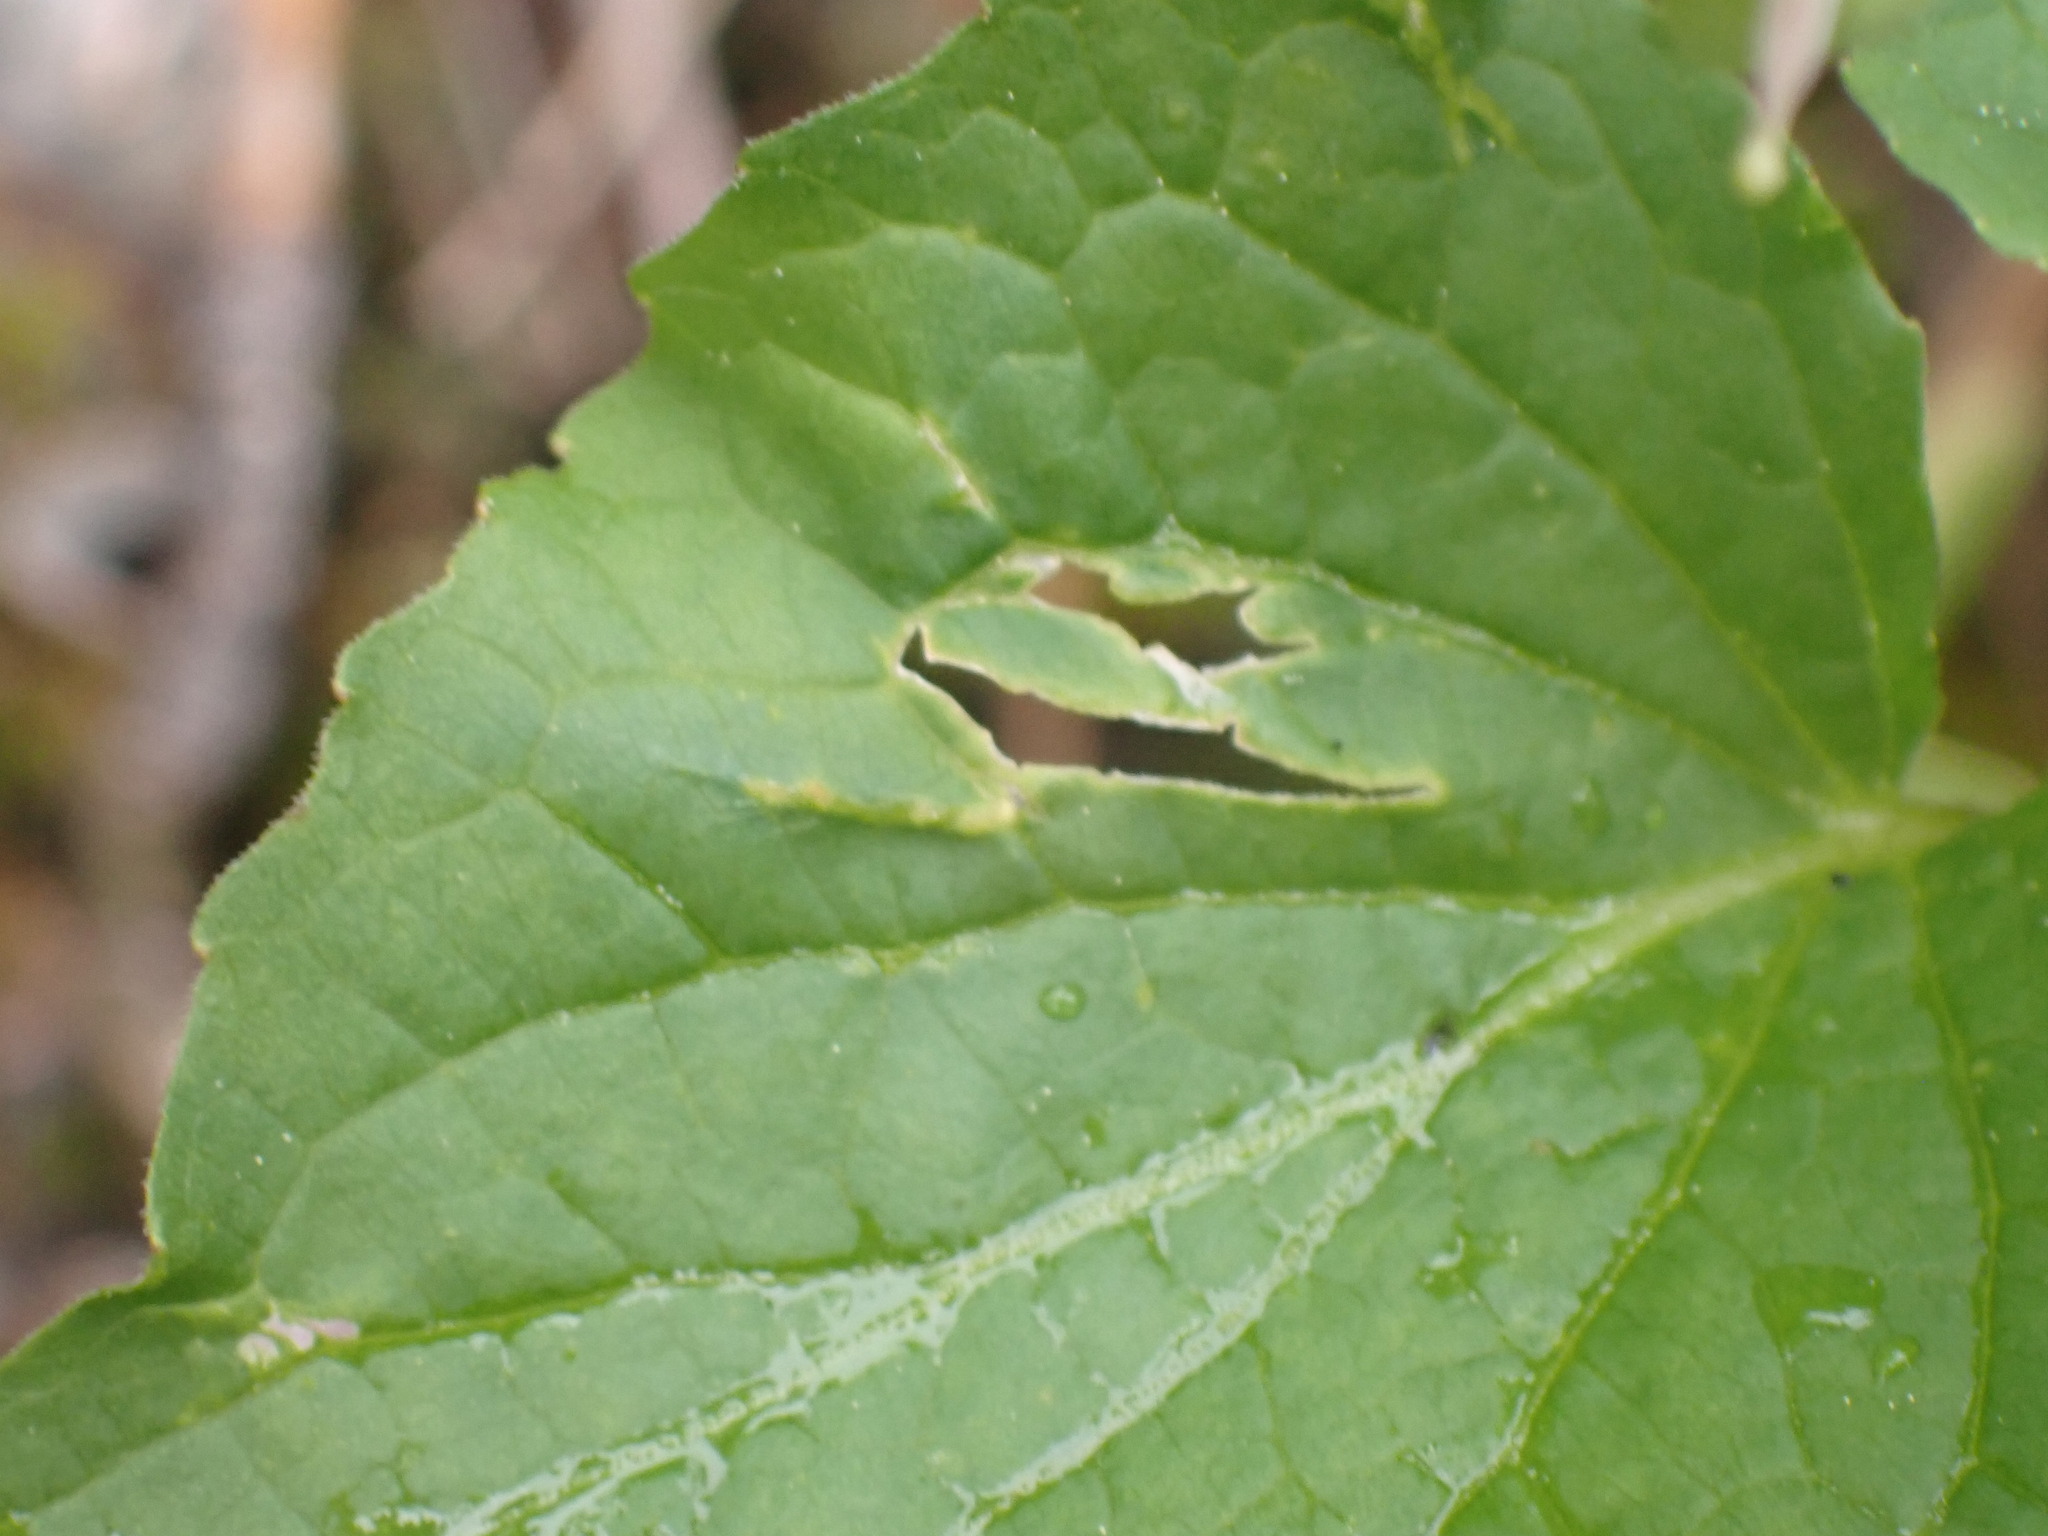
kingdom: Plantae
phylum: Tracheophyta
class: Magnoliopsida
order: Malpighiales
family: Violaceae
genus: Viola
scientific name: Viola canadensis
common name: Canada violet
